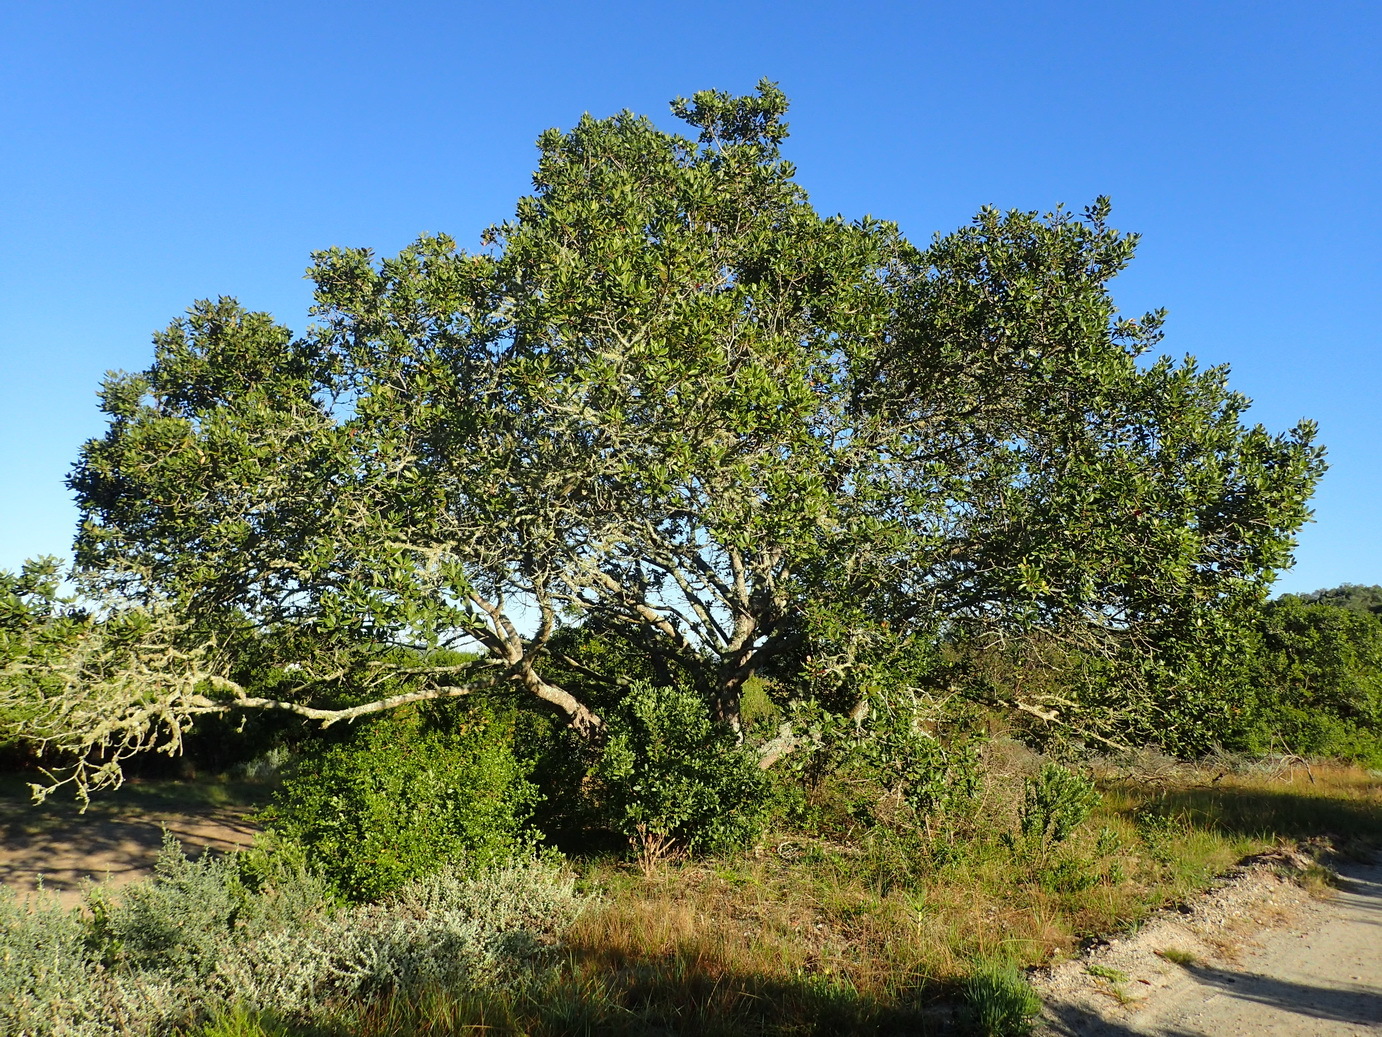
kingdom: Plantae
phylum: Tracheophyta
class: Magnoliopsida
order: Apiales
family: Pittosporaceae
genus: Pittosporum
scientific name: Pittosporum viridiflorum
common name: Cape cheesewood
